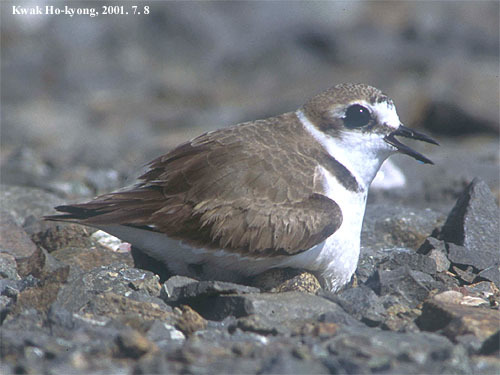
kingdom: Animalia
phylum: Chordata
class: Aves
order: Charadriiformes
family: Charadriidae
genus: Charadrius
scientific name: Charadrius alexandrinus
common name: Kentish plover
